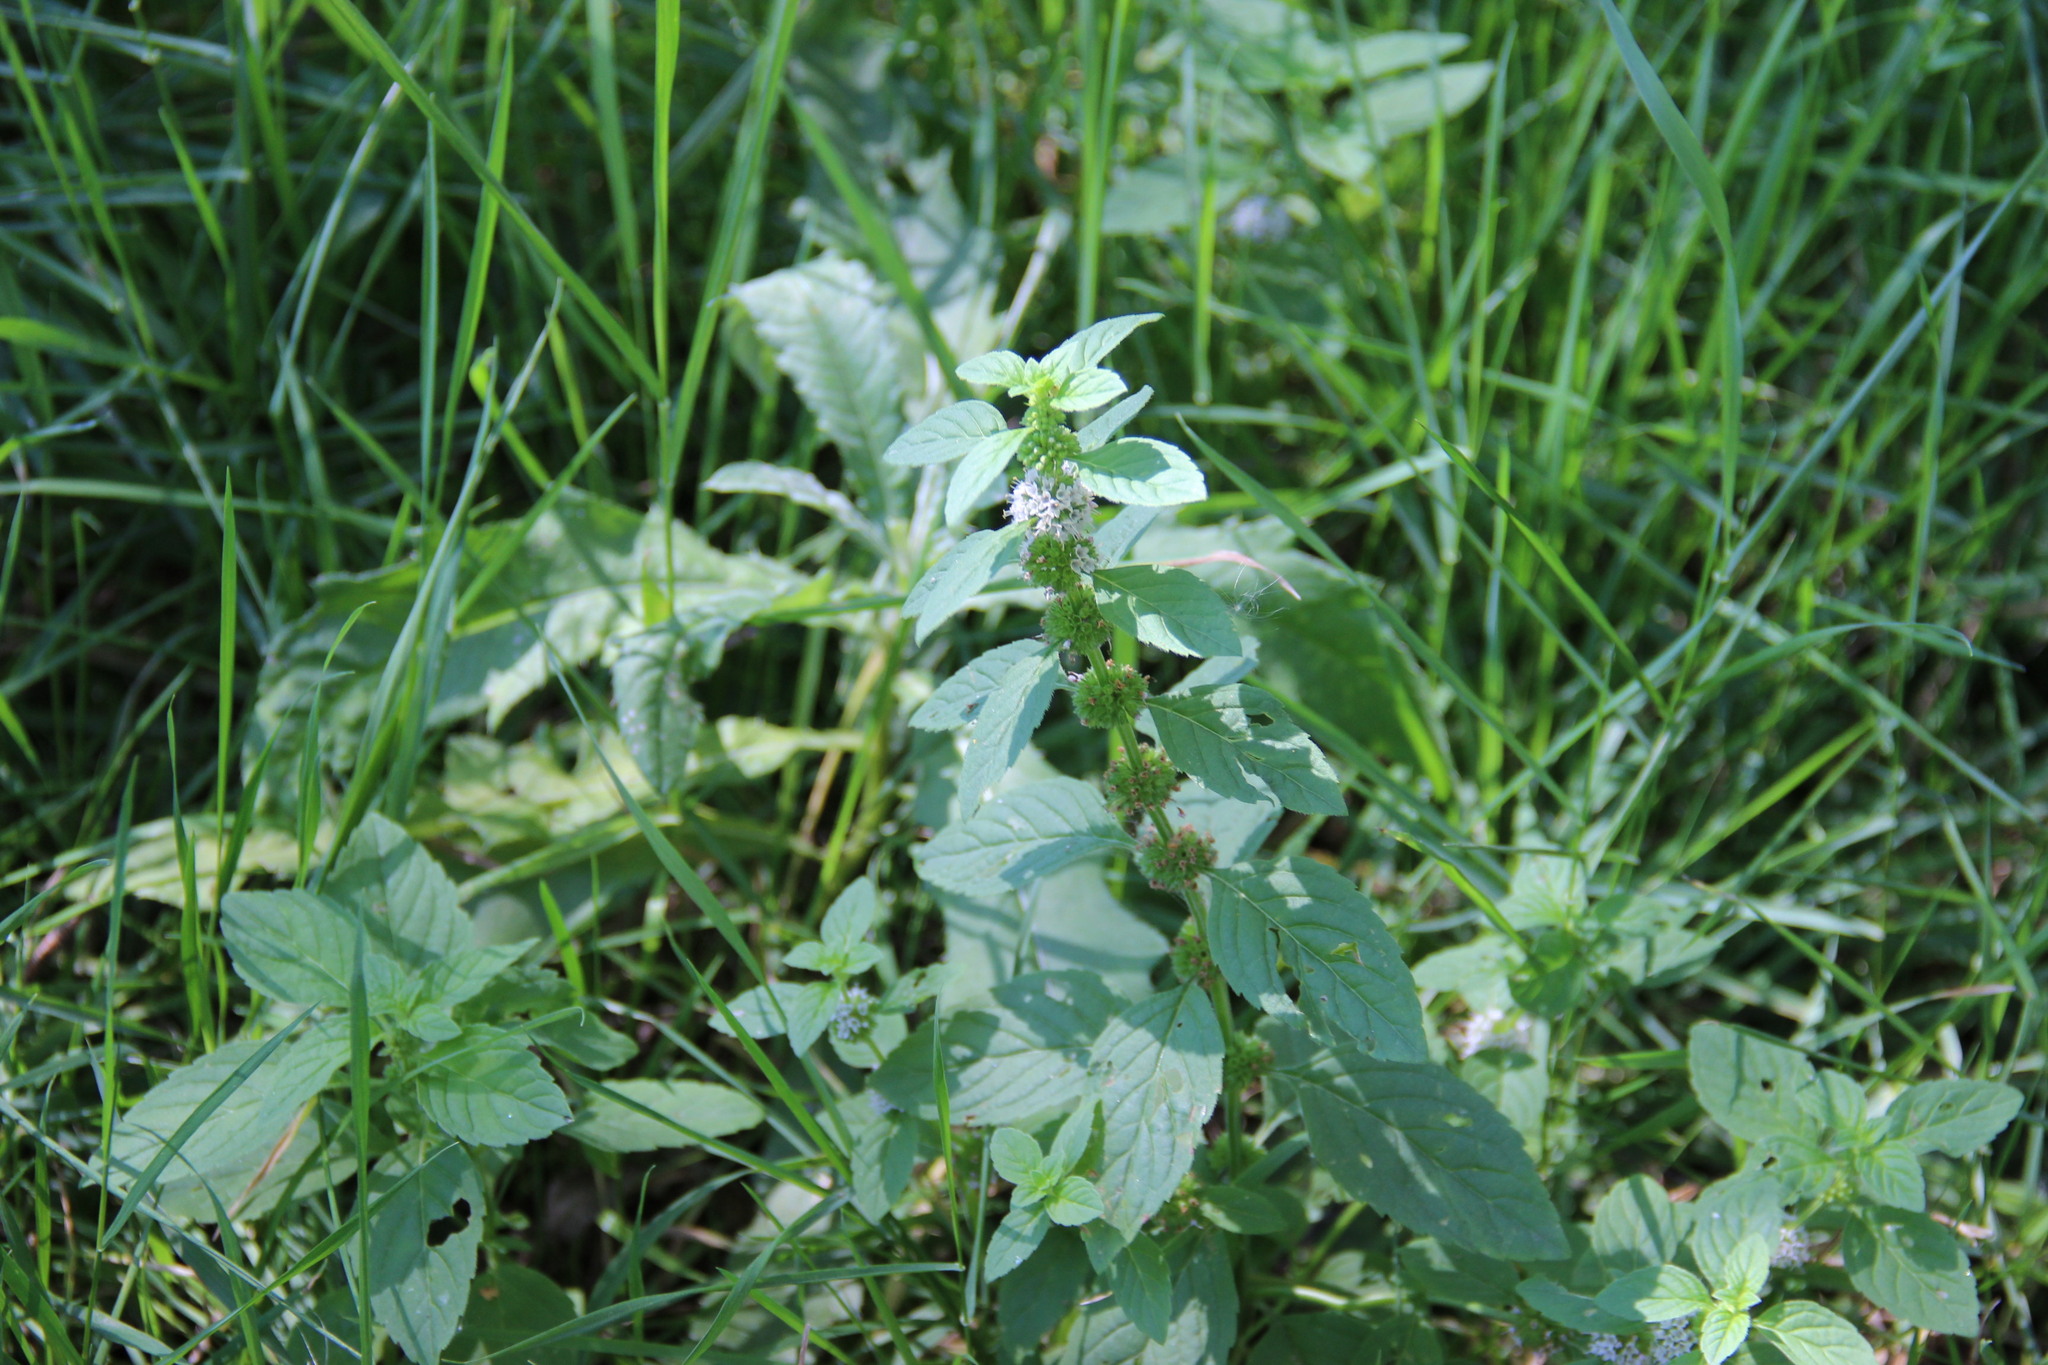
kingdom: Plantae
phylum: Tracheophyta
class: Magnoliopsida
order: Lamiales
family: Lamiaceae
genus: Mentha
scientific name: Mentha arvensis
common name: Corn mint
